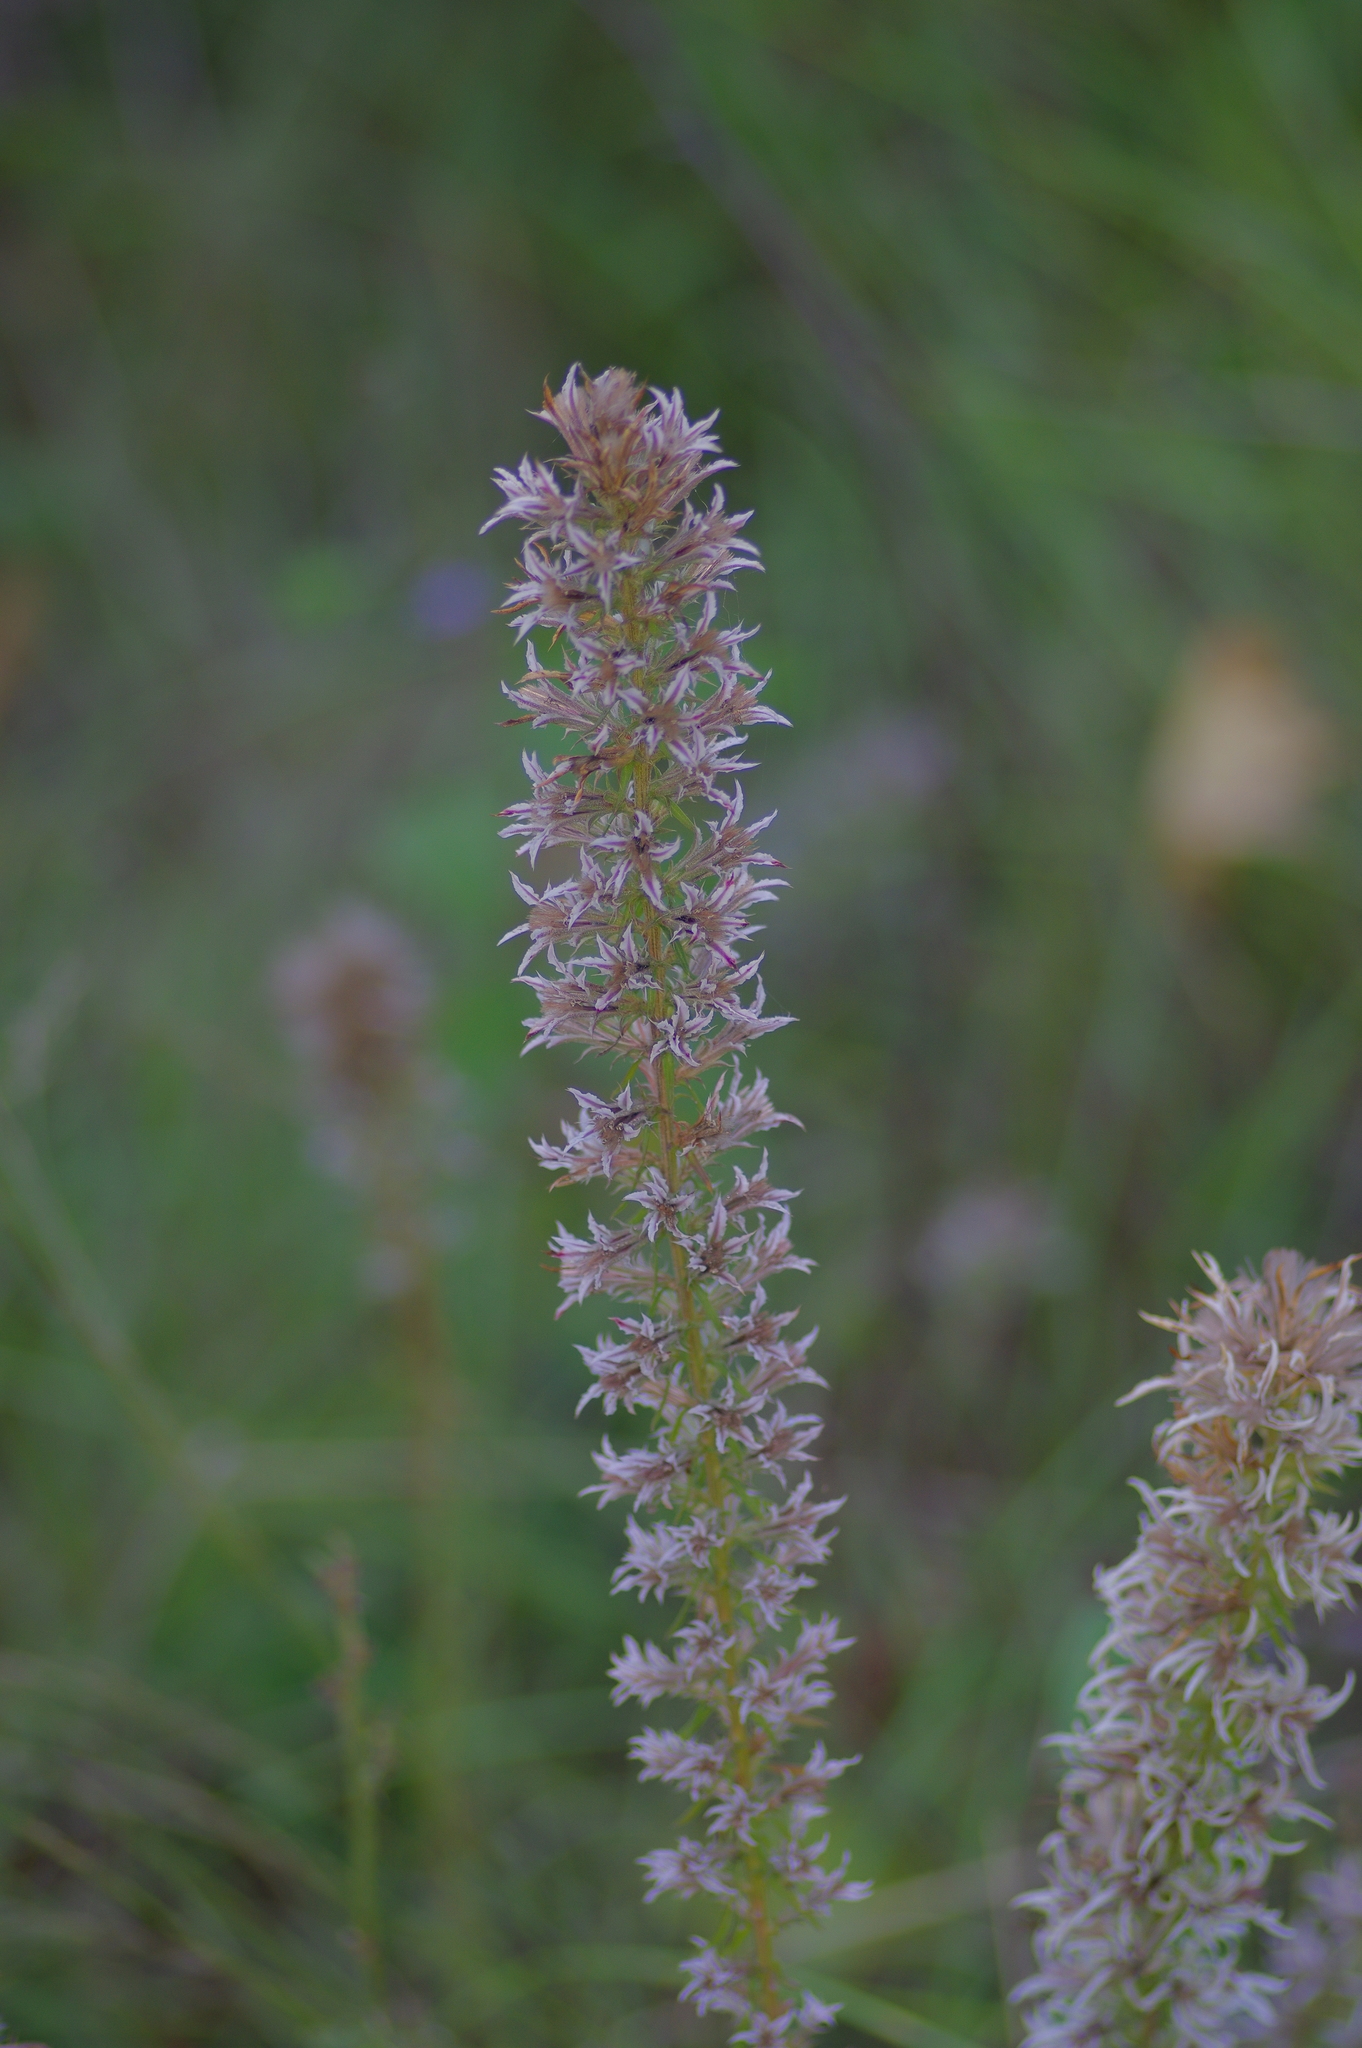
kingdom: Plantae
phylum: Tracheophyta
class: Magnoliopsida
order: Asterales
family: Asteraceae
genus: Liatris
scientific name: Liatris hesperelegans
